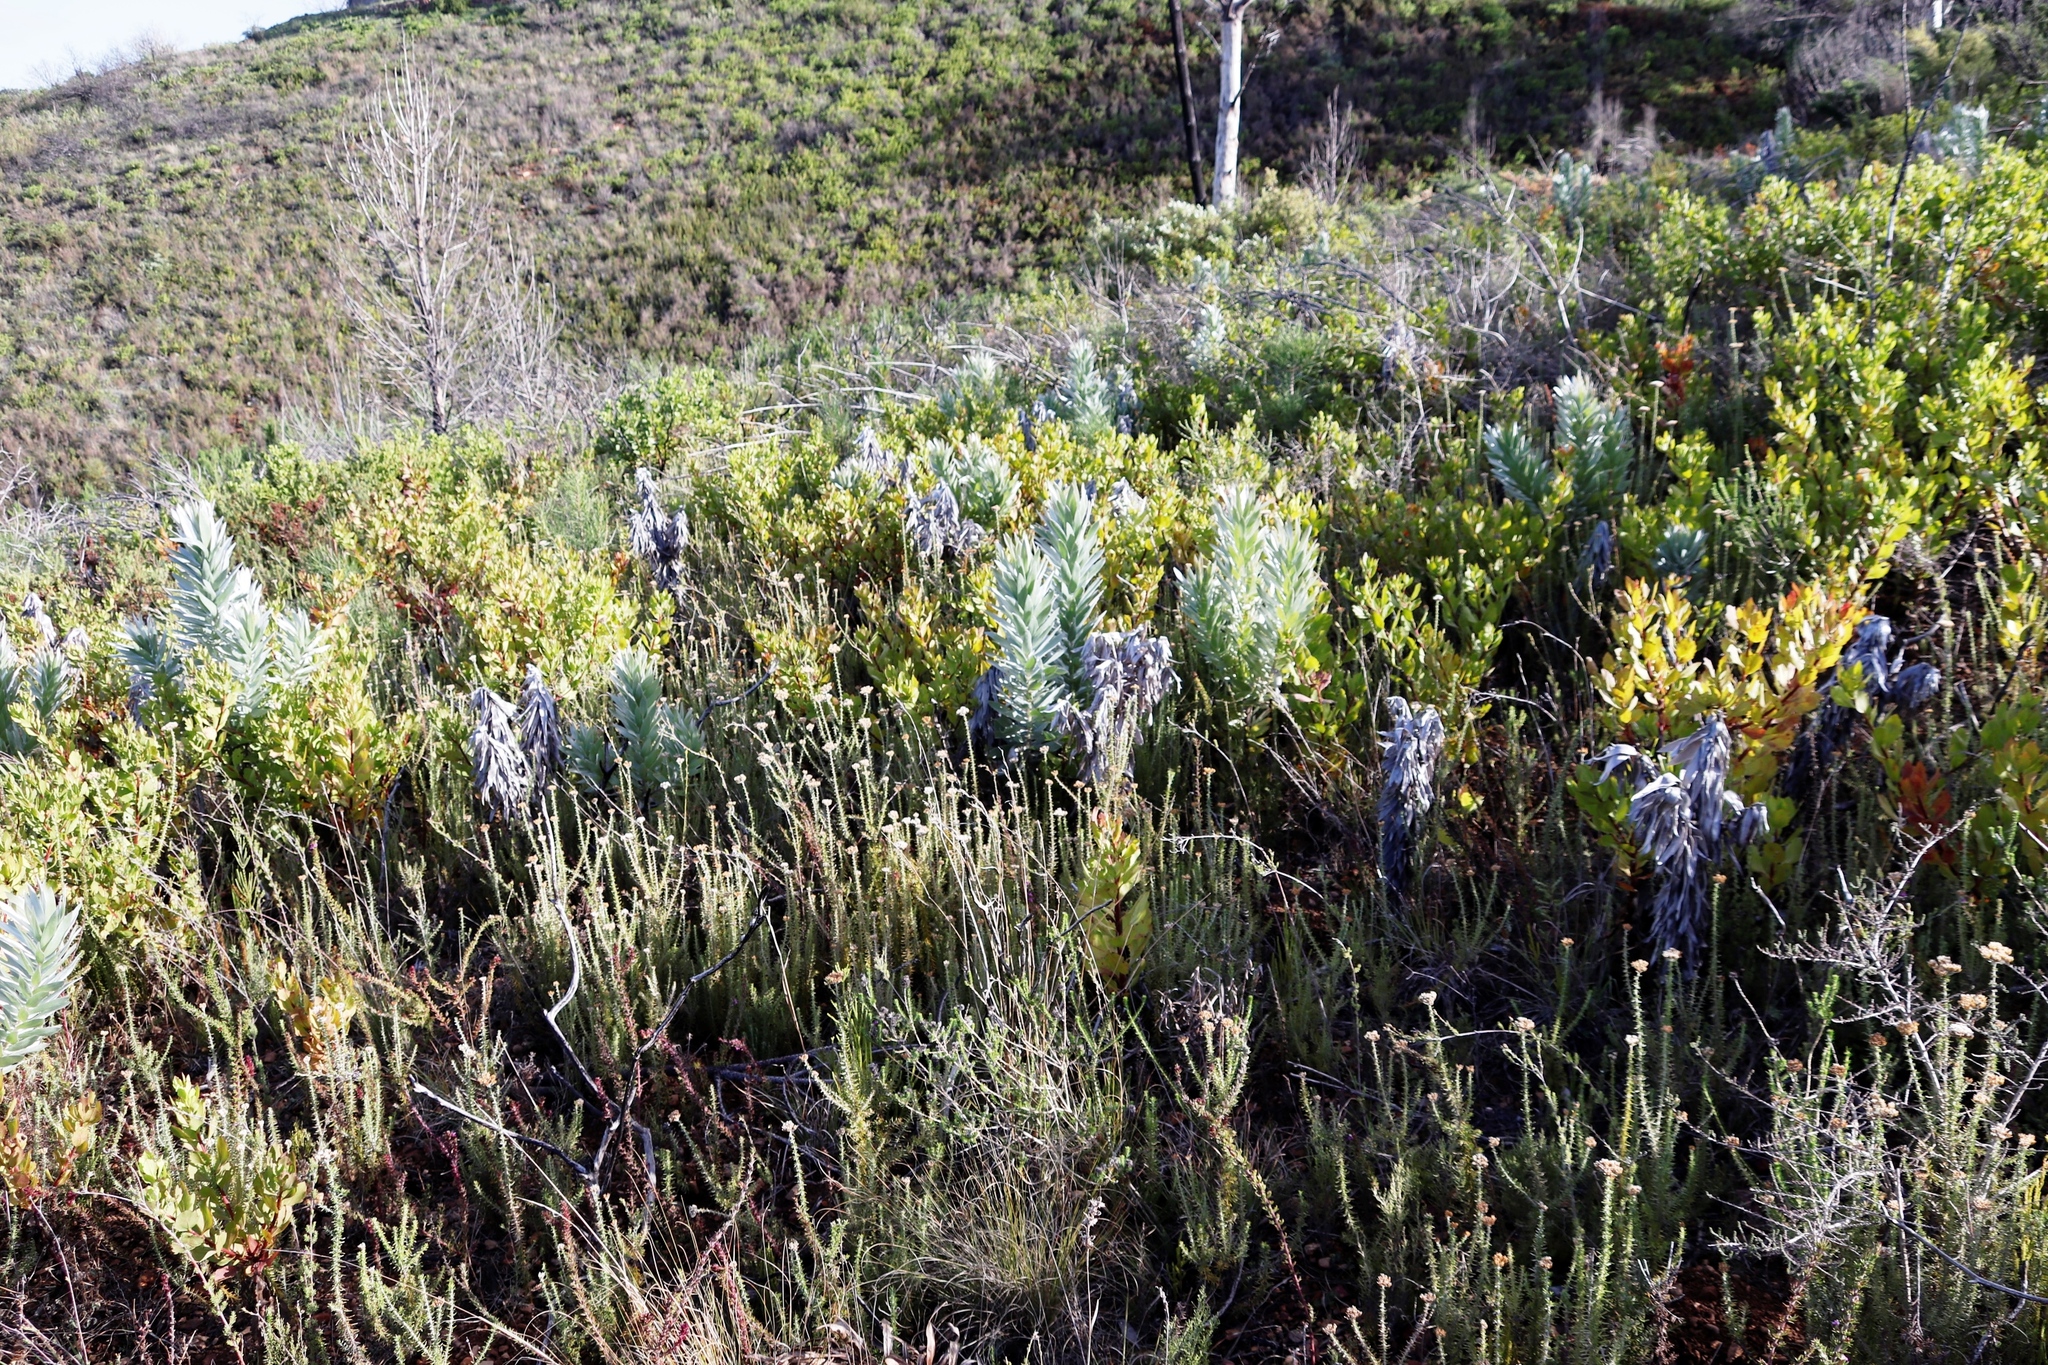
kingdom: Plantae
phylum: Tracheophyta
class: Magnoliopsida
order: Proteales
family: Proteaceae
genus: Leucadendron
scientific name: Leucadendron argenteum
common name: Cape silver tree
